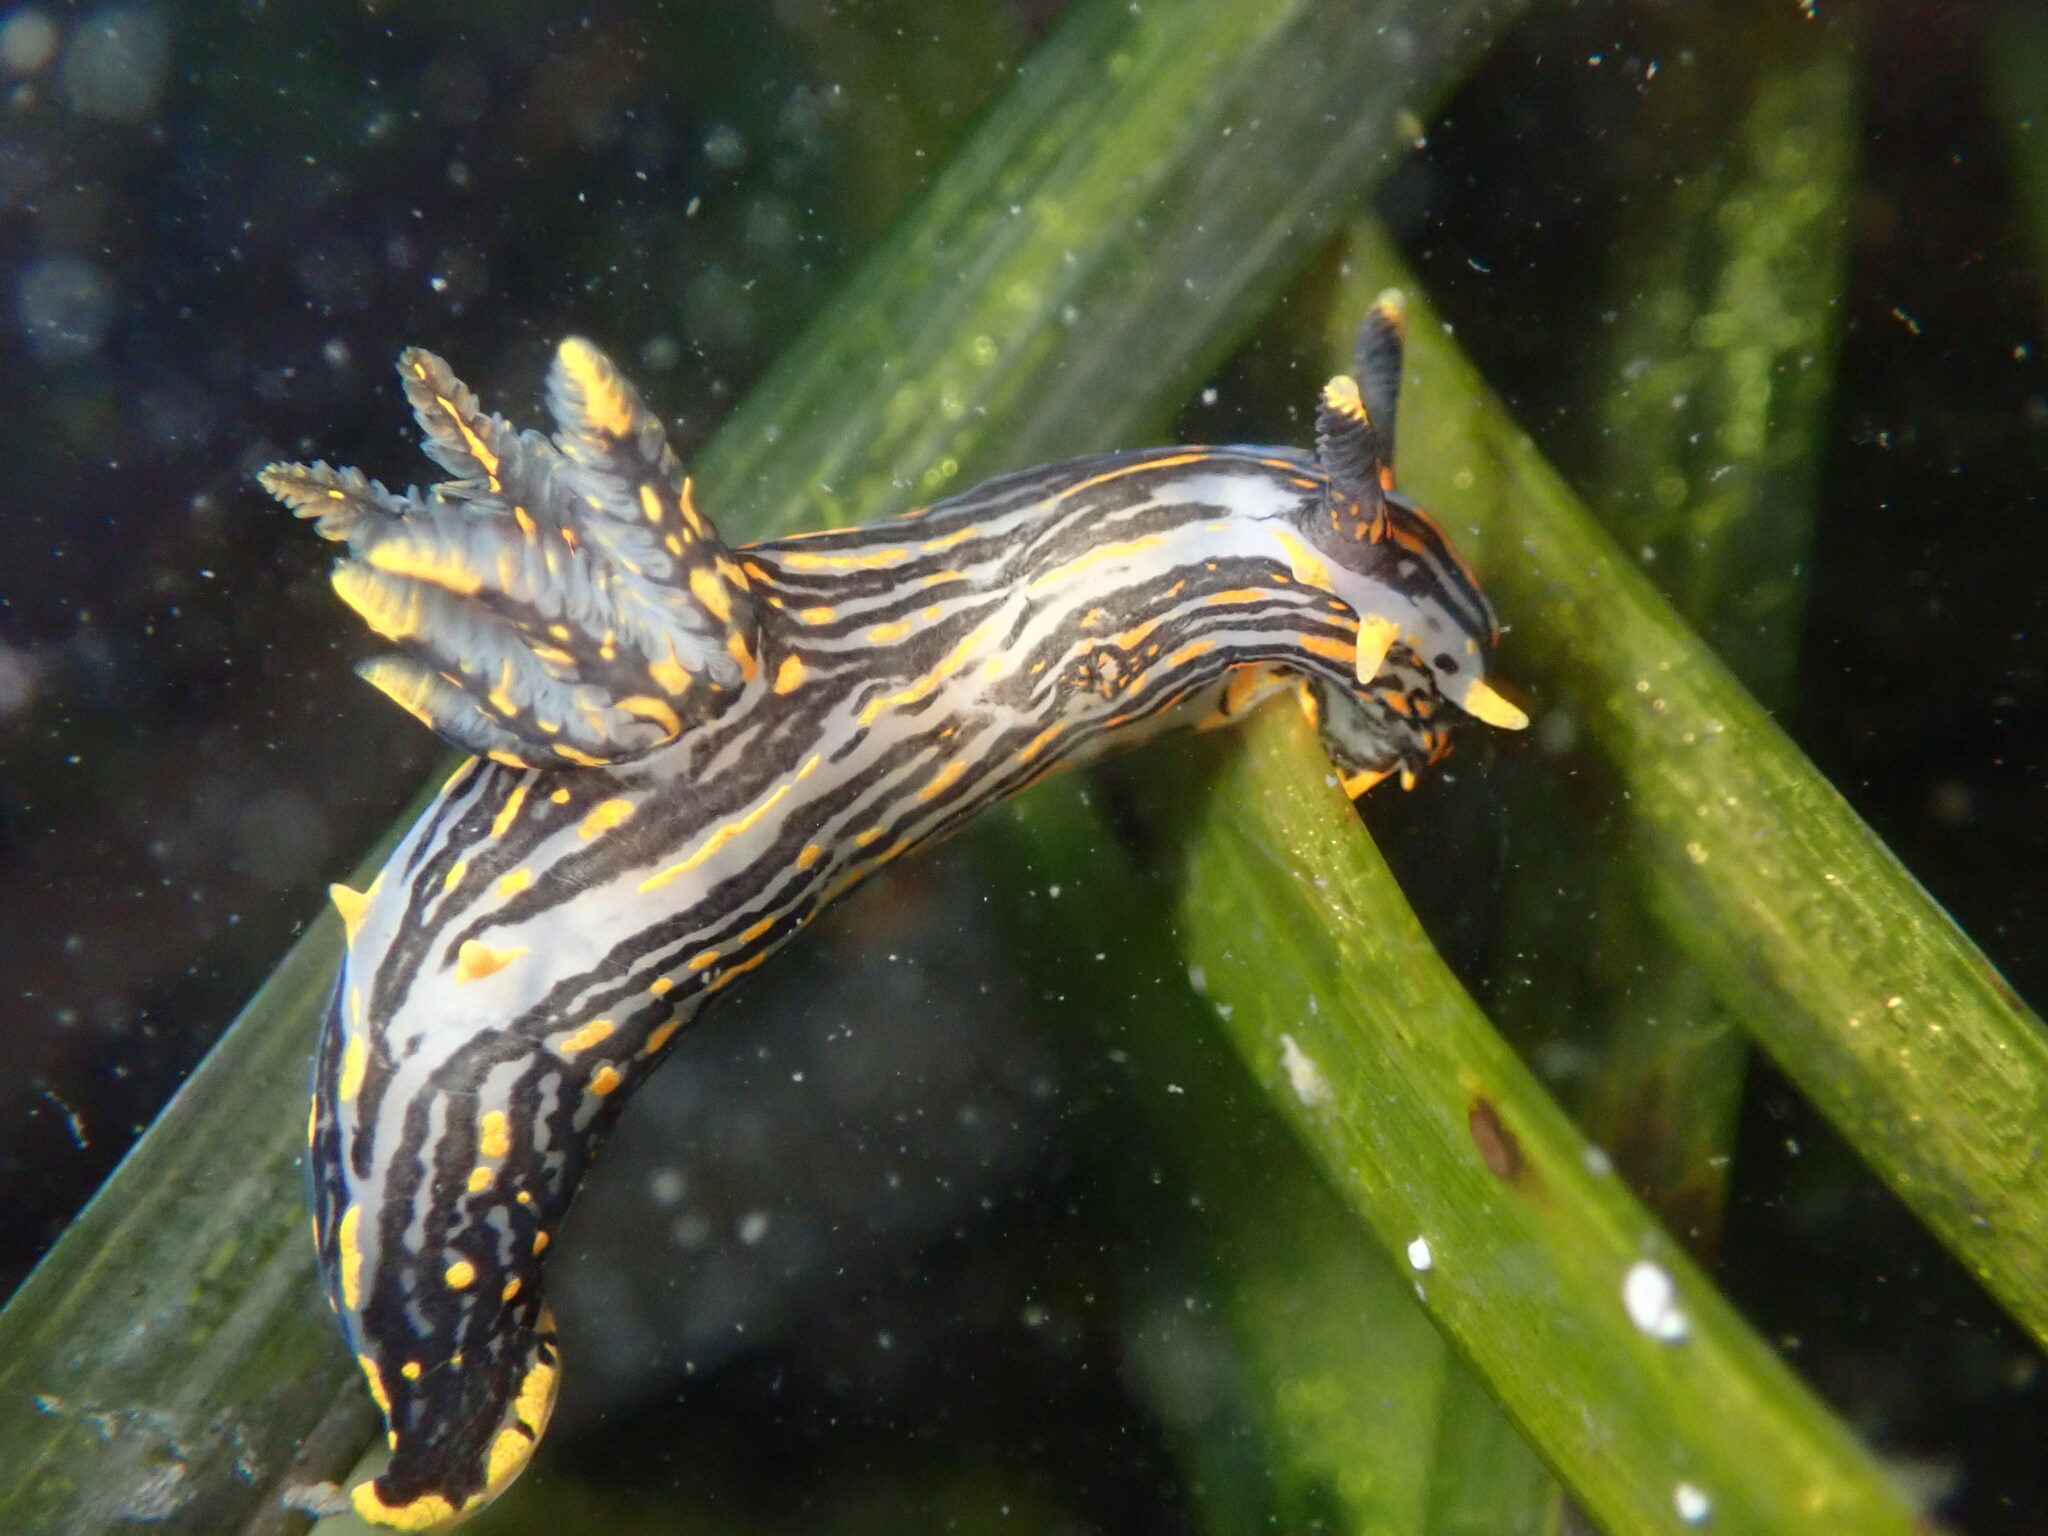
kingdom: Animalia
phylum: Mollusca
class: Gastropoda
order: Nudibranchia
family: Polyceridae
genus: Polycera
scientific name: Polycera atra
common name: Orange-spike polycera
